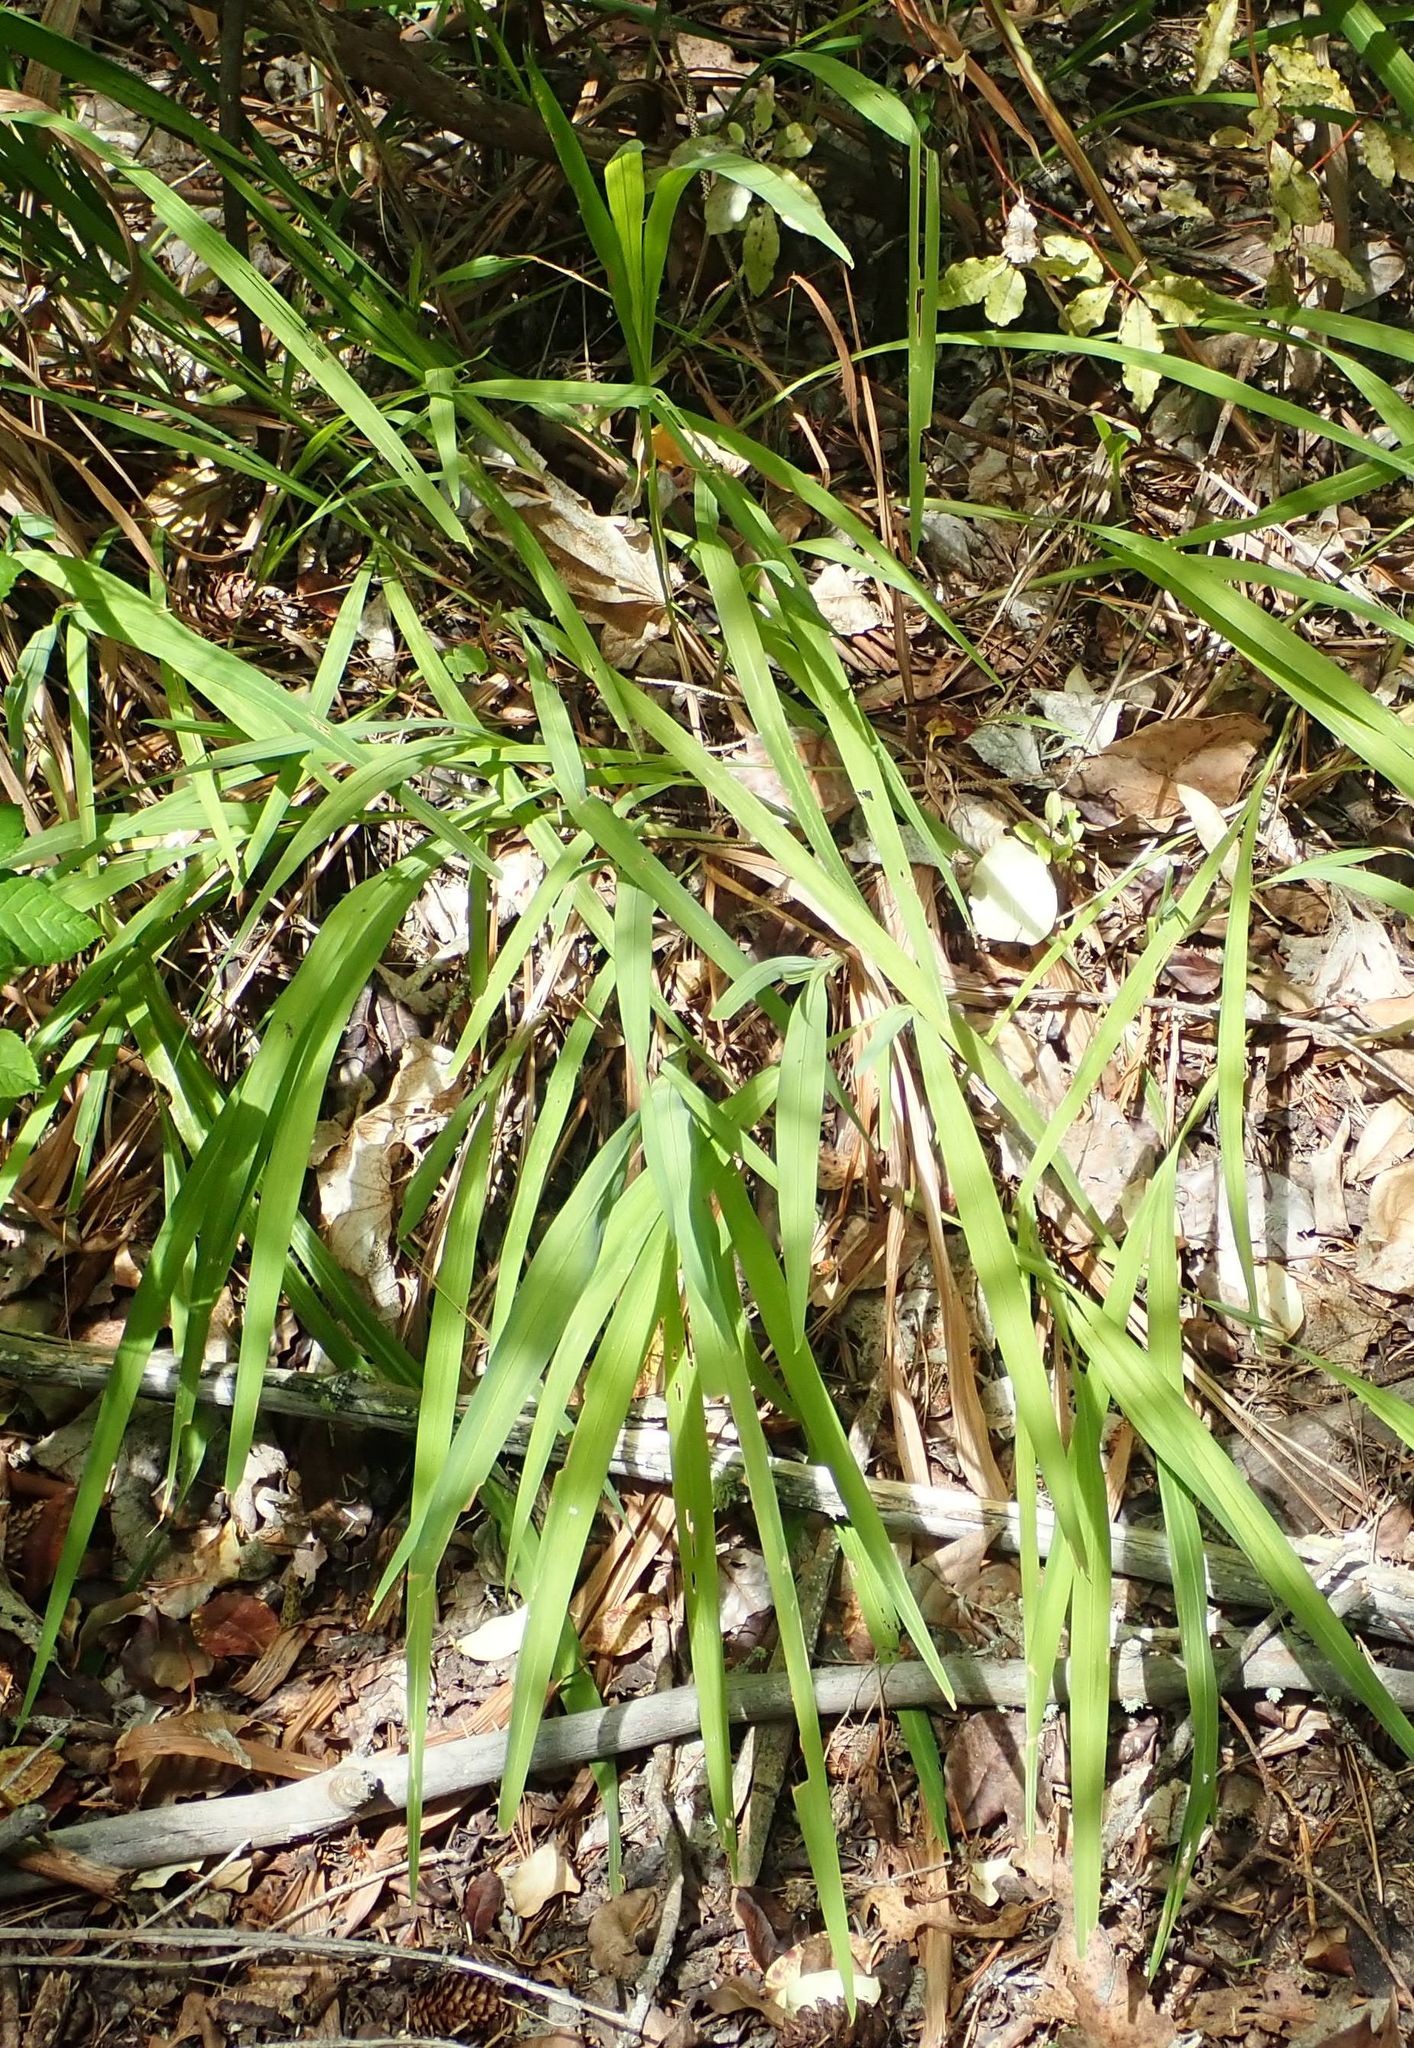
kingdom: Plantae
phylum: Tracheophyta
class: Liliopsida
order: Asparagales
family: Iridaceae
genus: Crocosmia
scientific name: Crocosmia crocosmiiflora
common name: Montbretia
